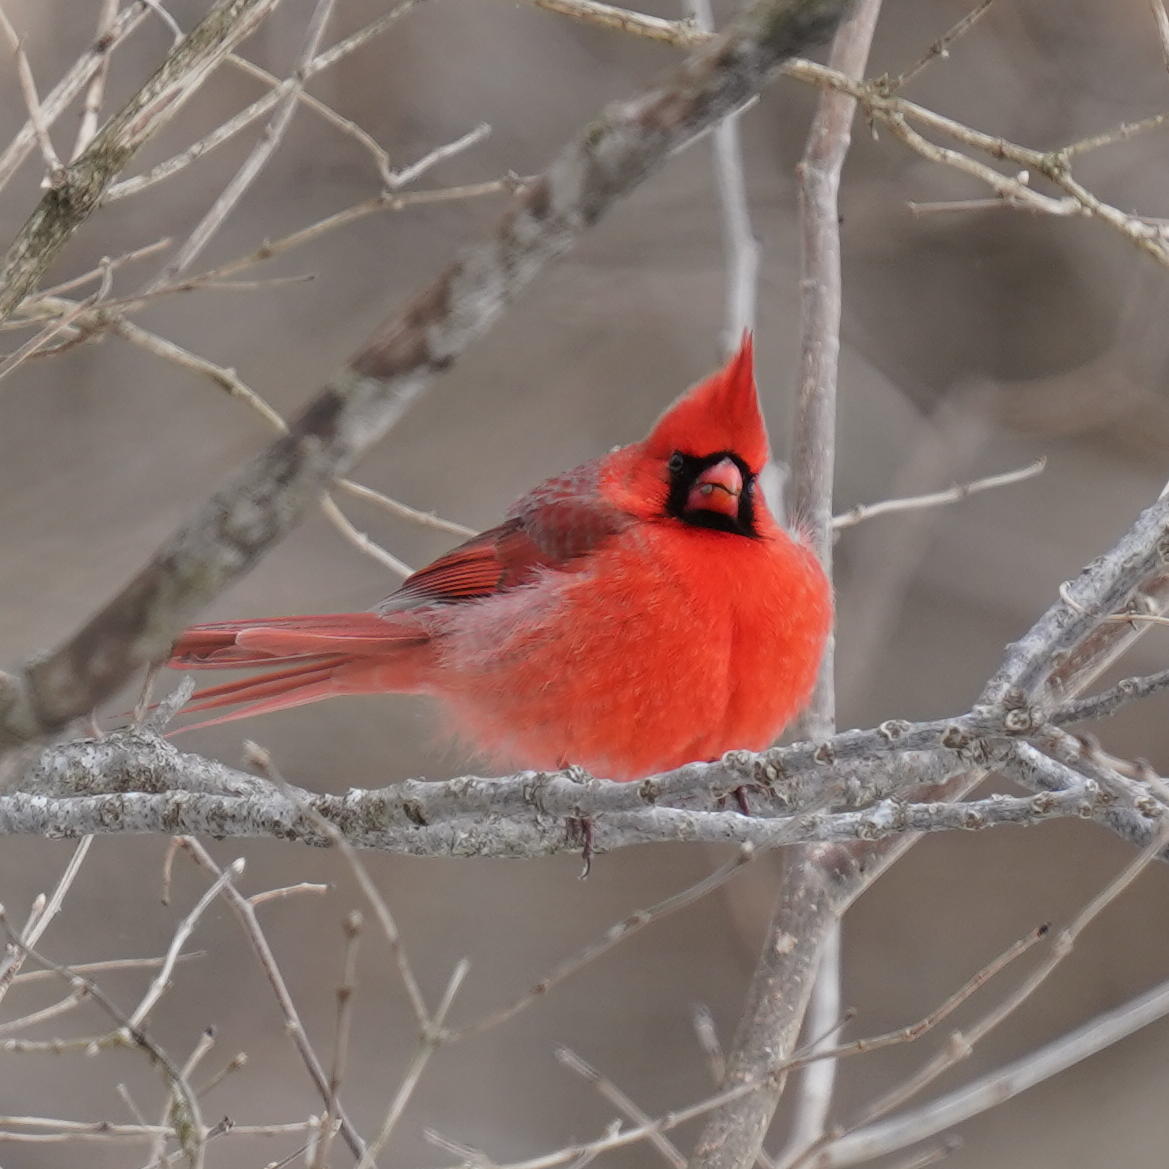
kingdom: Animalia
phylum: Chordata
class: Aves
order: Passeriformes
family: Cardinalidae
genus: Cardinalis
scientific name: Cardinalis cardinalis
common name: Northern cardinal
